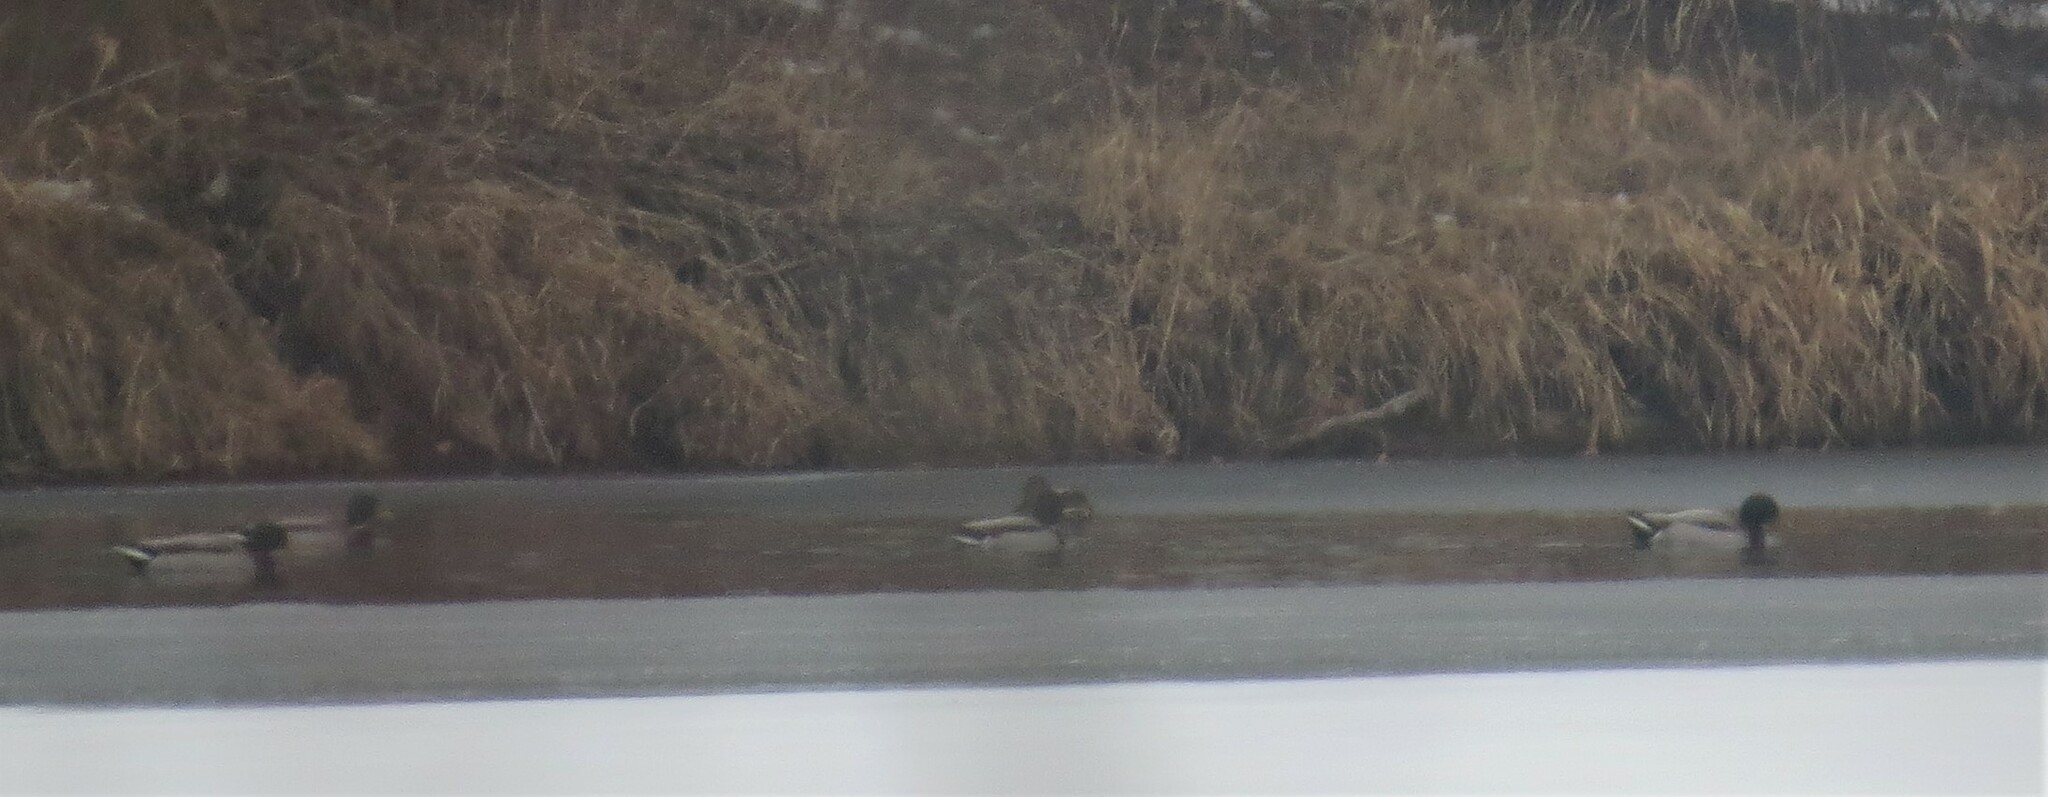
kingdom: Animalia
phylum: Chordata
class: Aves
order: Anseriformes
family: Anatidae
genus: Anas
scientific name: Anas platyrhynchos
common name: Mallard
